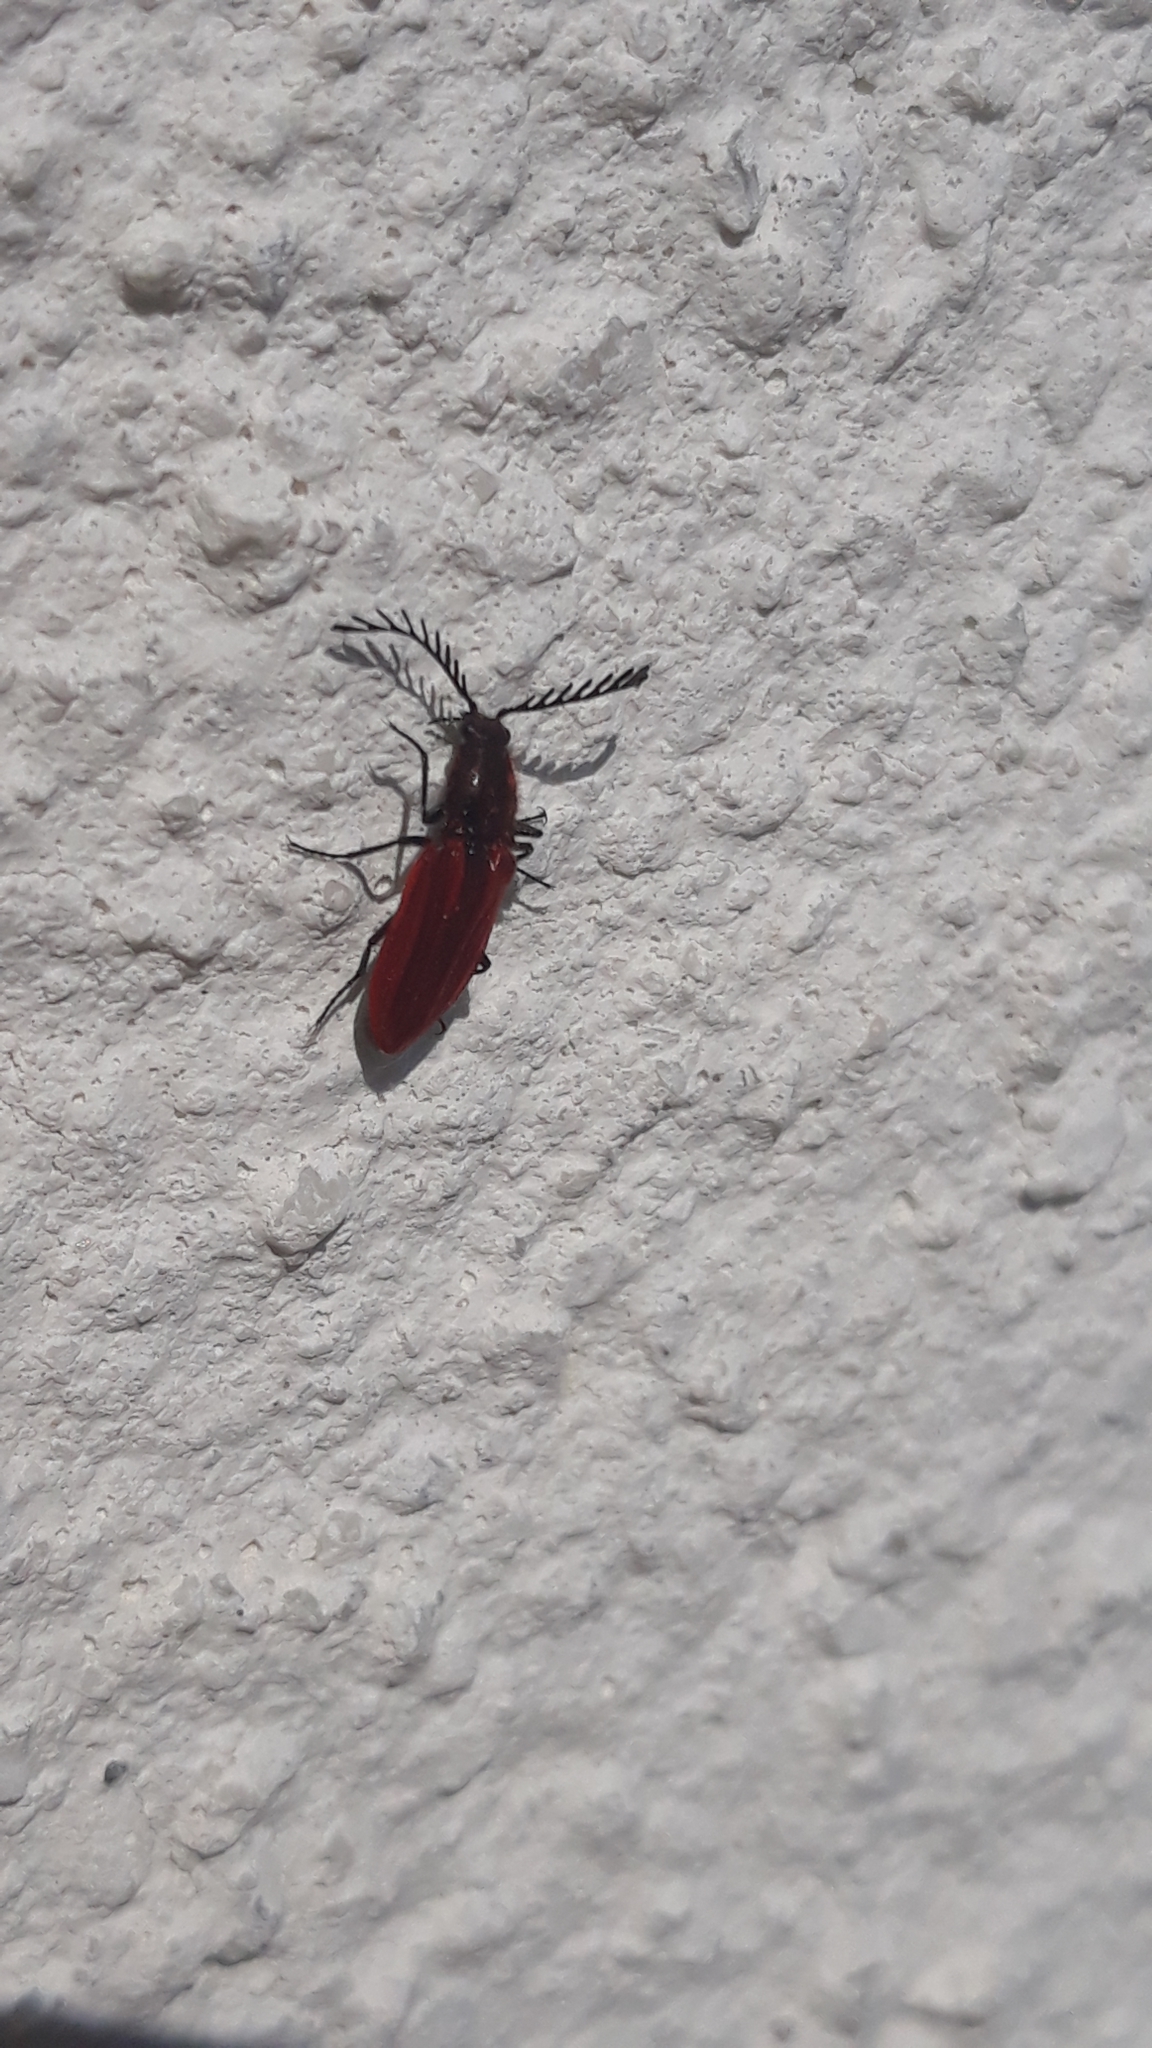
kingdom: Animalia
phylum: Arthropoda
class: Insecta
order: Coleoptera
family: Elateridae
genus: Anostirus
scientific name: Anostirus purpureus
